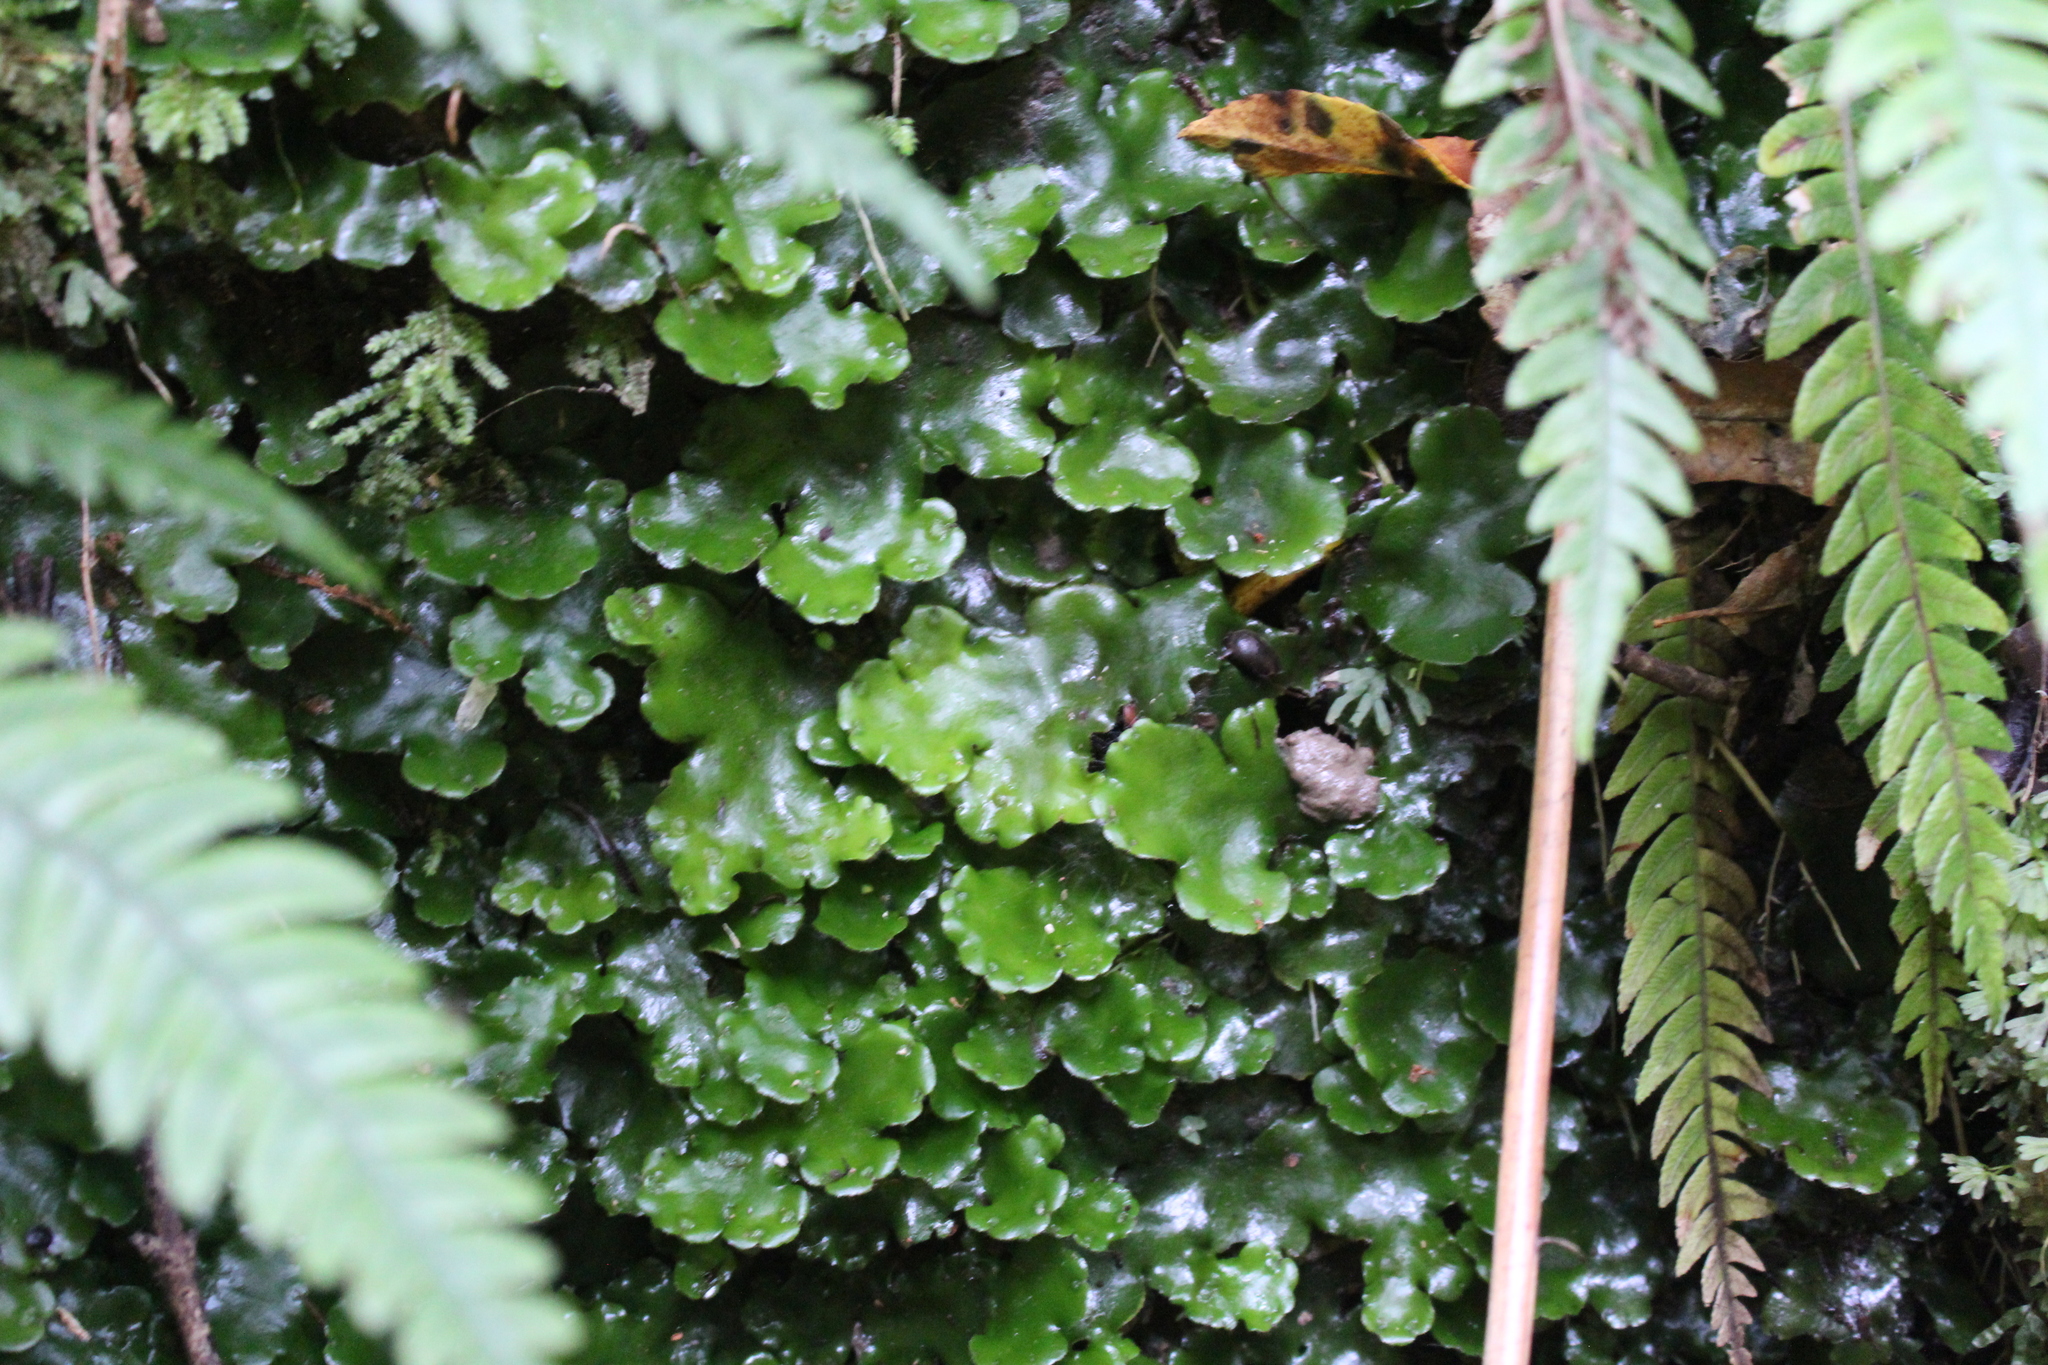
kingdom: Plantae
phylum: Marchantiophyta
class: Marchantiopsida
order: Marchantiales
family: Monocleaceae
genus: Monoclea
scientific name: Monoclea forsteri
